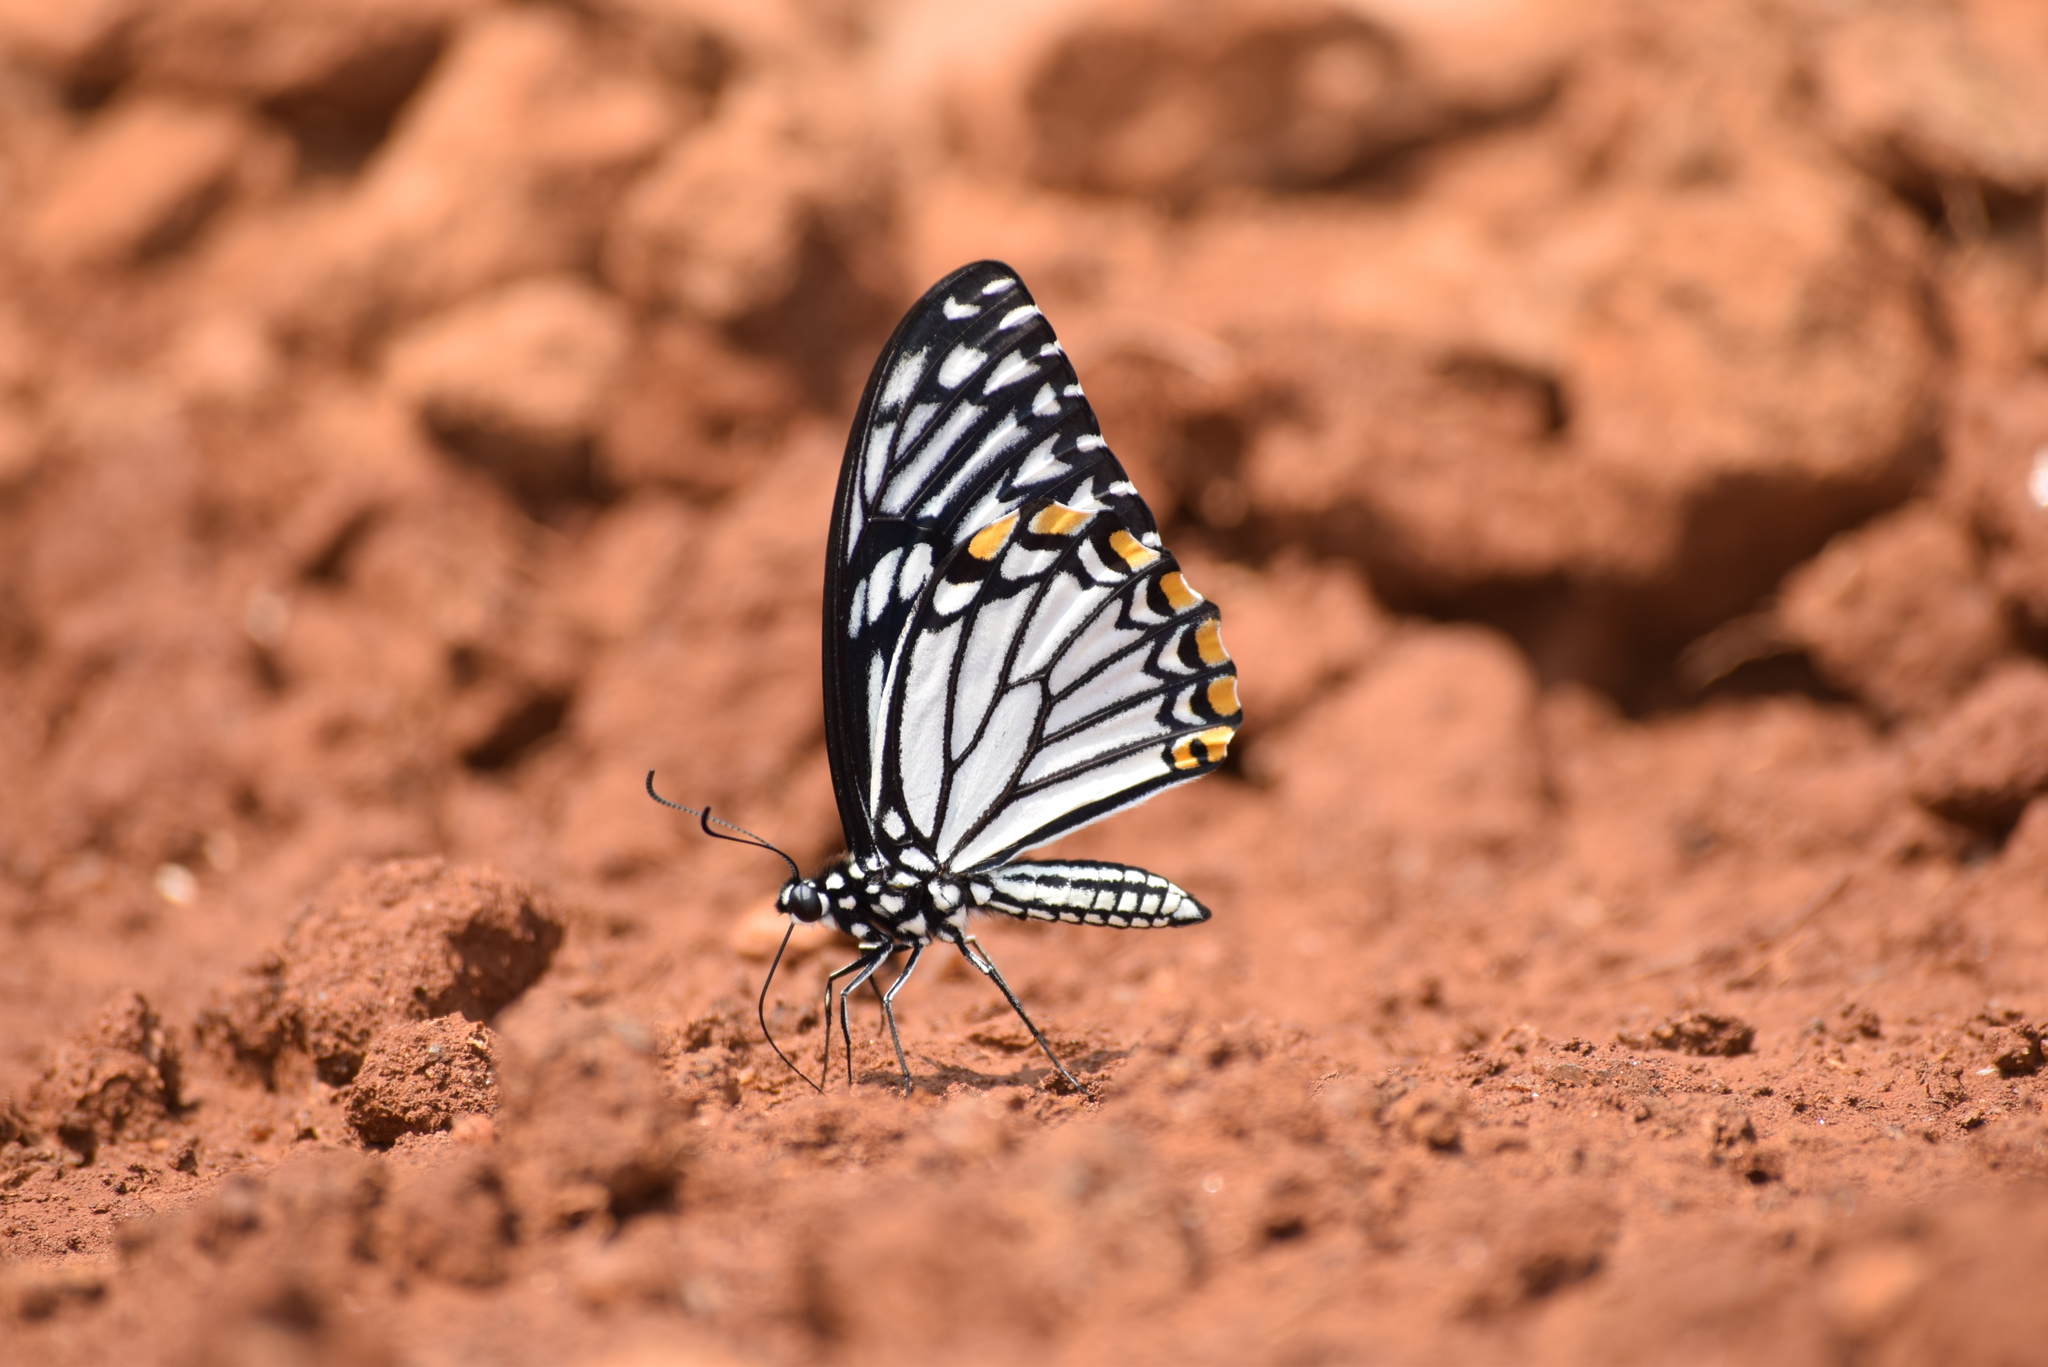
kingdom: Animalia
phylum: Arthropoda
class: Insecta
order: Lepidoptera
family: Papilionidae
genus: Chilasa
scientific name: Chilasa clytia
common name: Common mime
